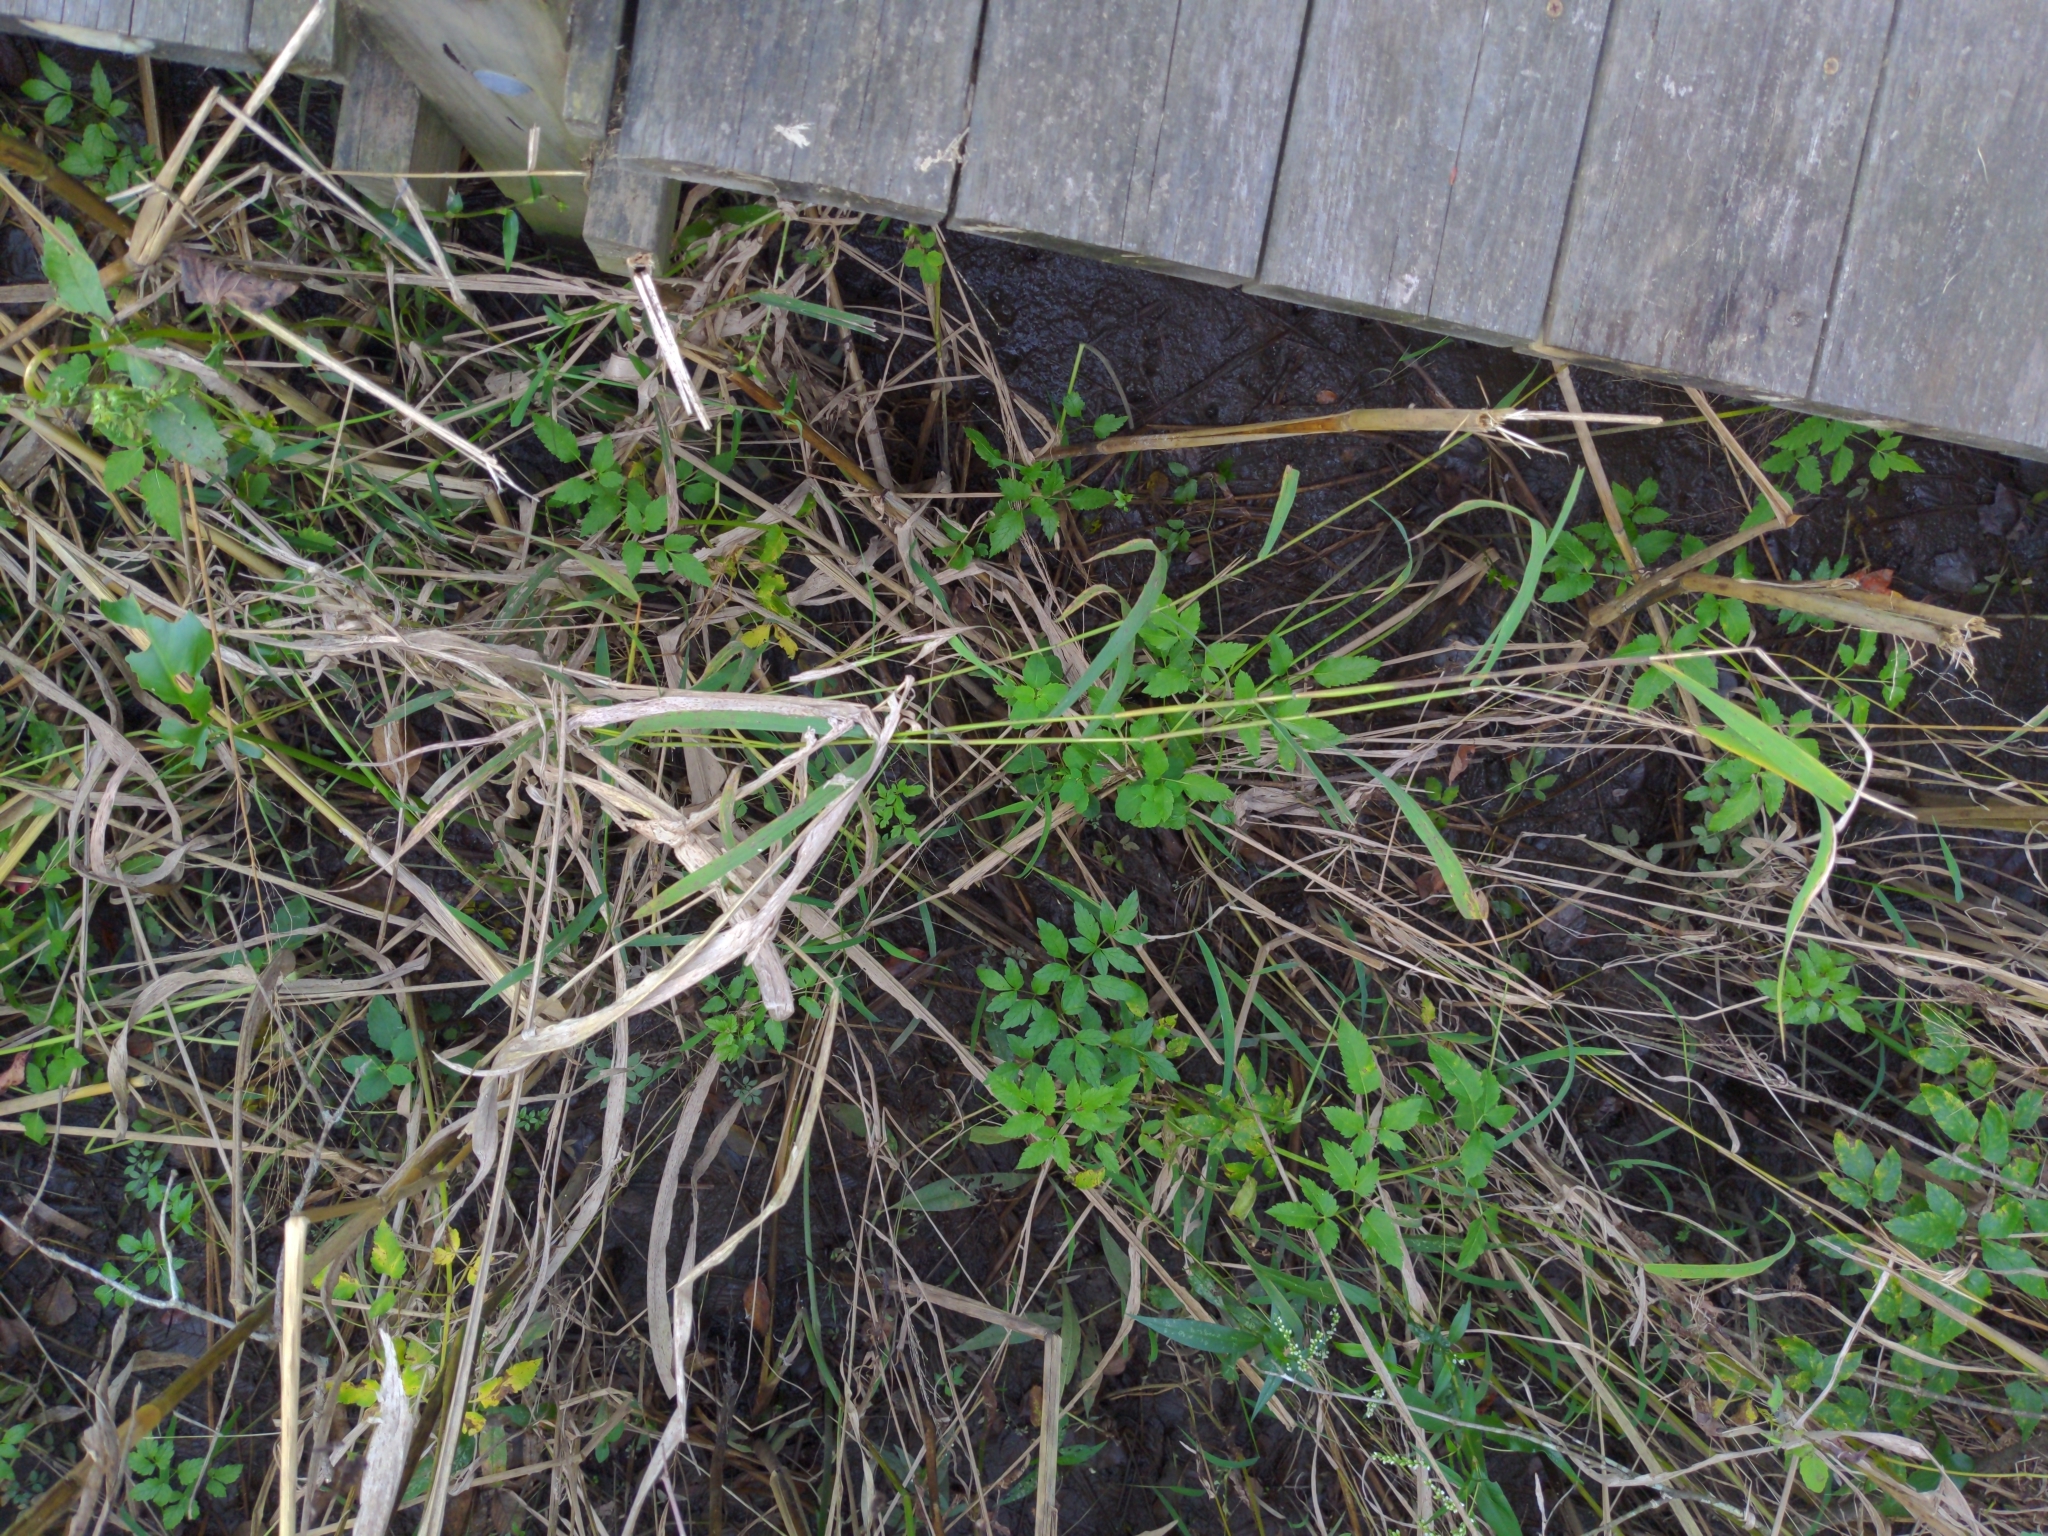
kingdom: Plantae
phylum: Tracheophyta
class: Liliopsida
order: Poales
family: Poaceae
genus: Leersia
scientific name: Leersia oryzoides
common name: Cut-grass
